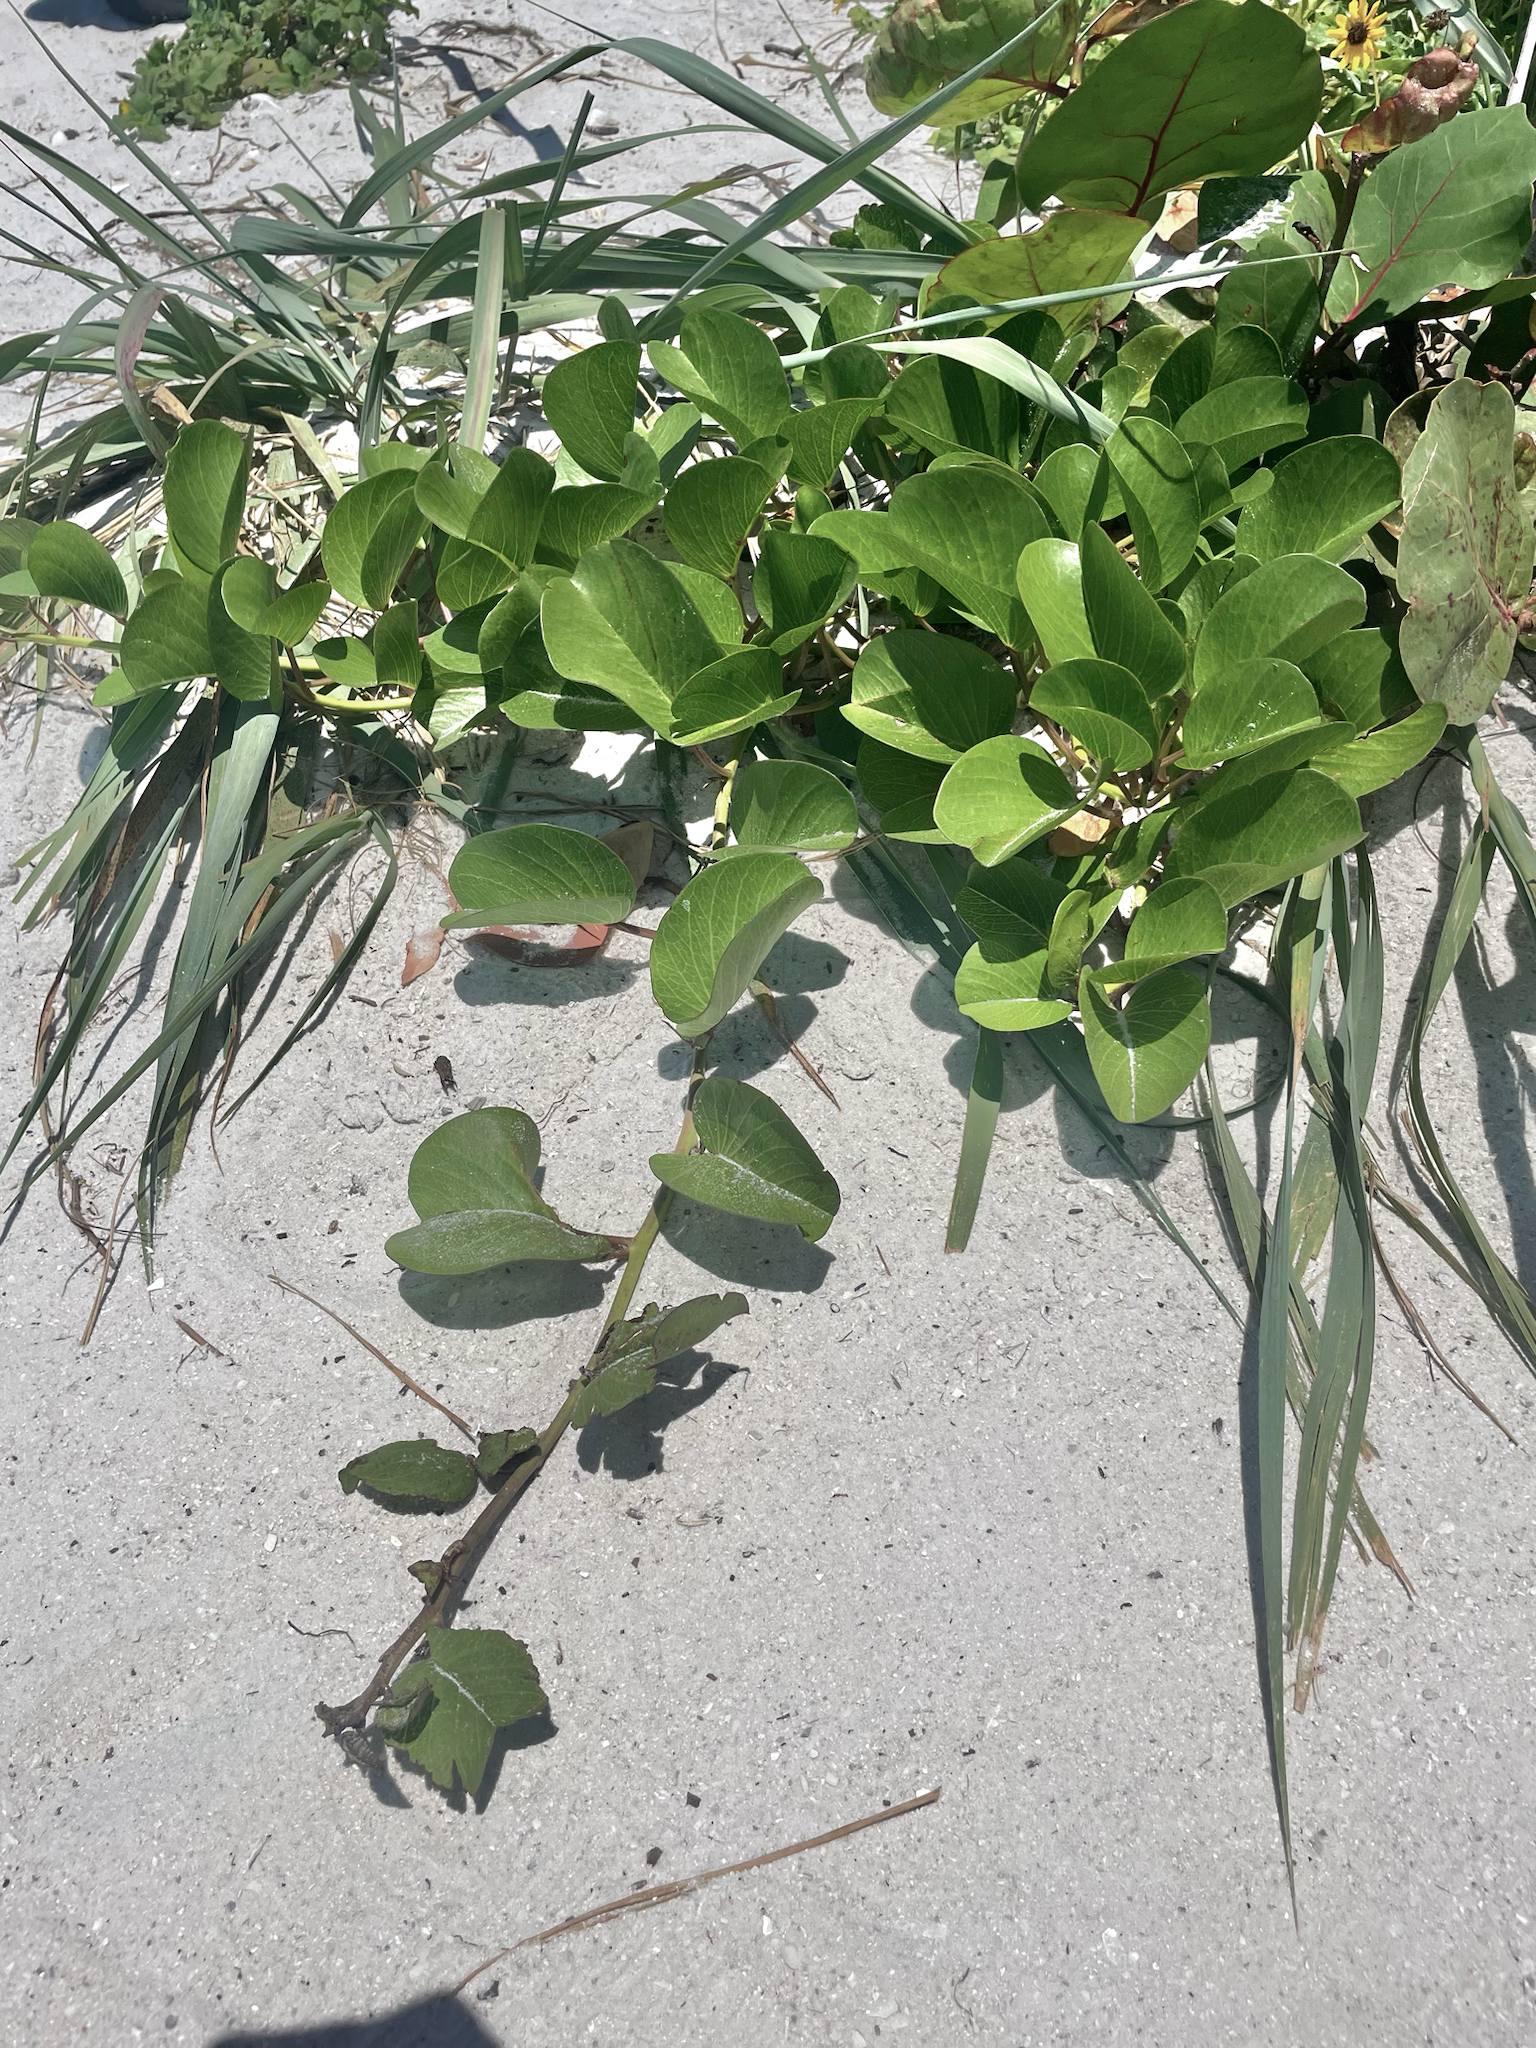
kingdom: Plantae
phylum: Tracheophyta
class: Magnoliopsida
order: Solanales
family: Convolvulaceae
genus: Ipomoea
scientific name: Ipomoea pes-caprae
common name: Beach morning glory
